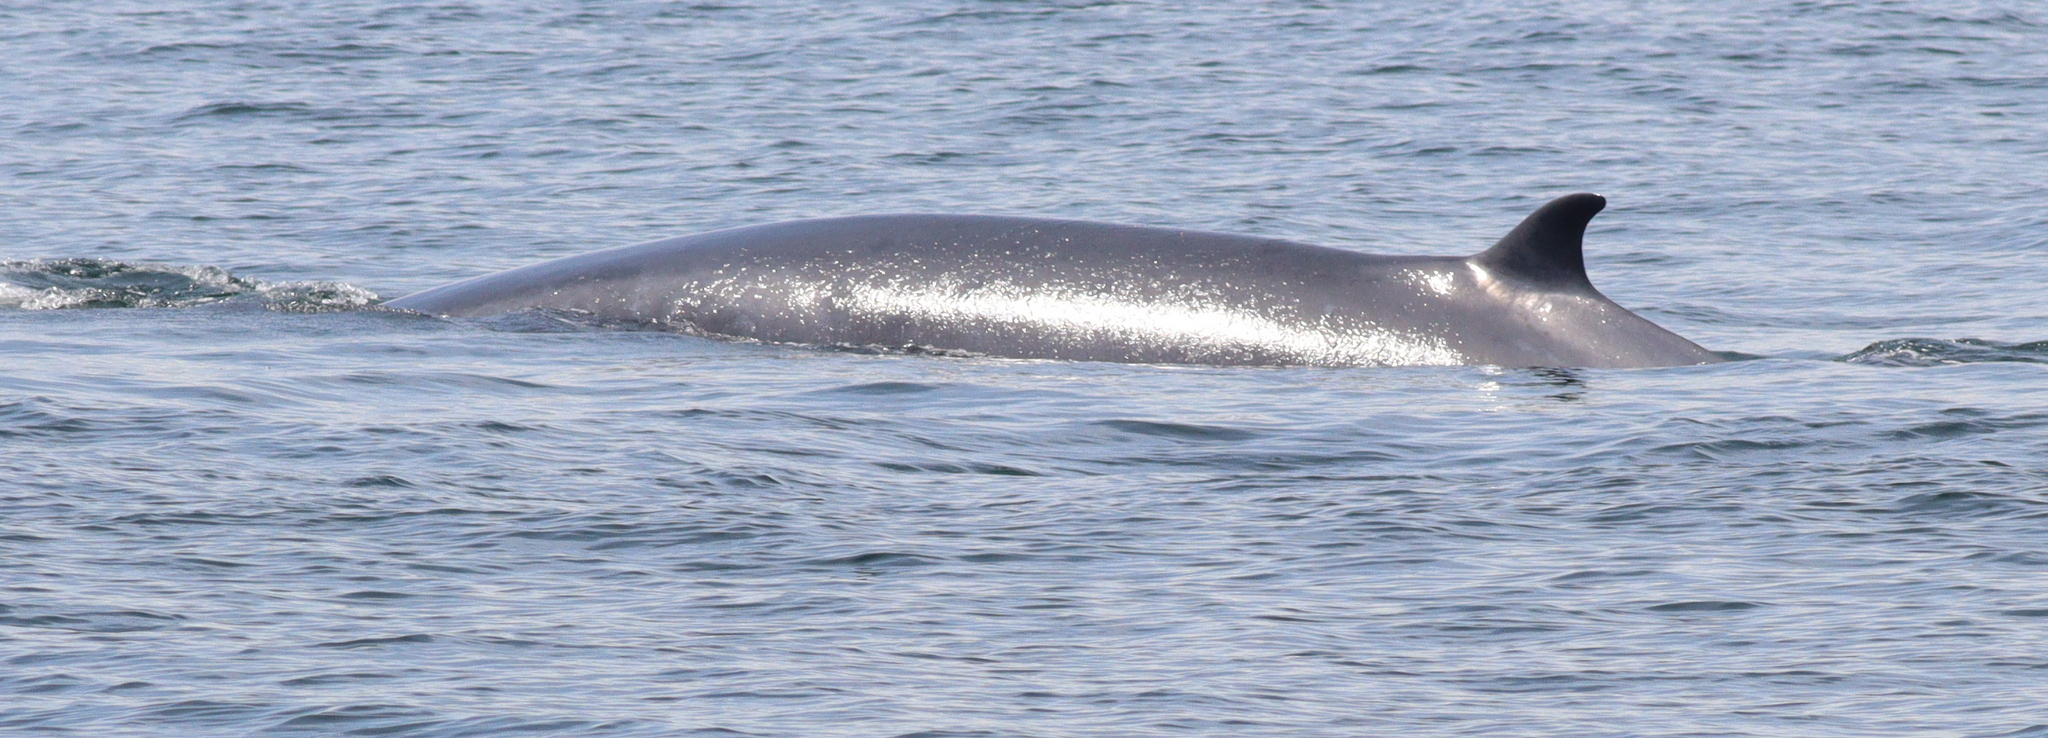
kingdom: Animalia
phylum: Chordata
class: Mammalia
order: Cetacea
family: Balaenopteridae
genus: Balaenoptera
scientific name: Balaenoptera edeni
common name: Bryde's whale
